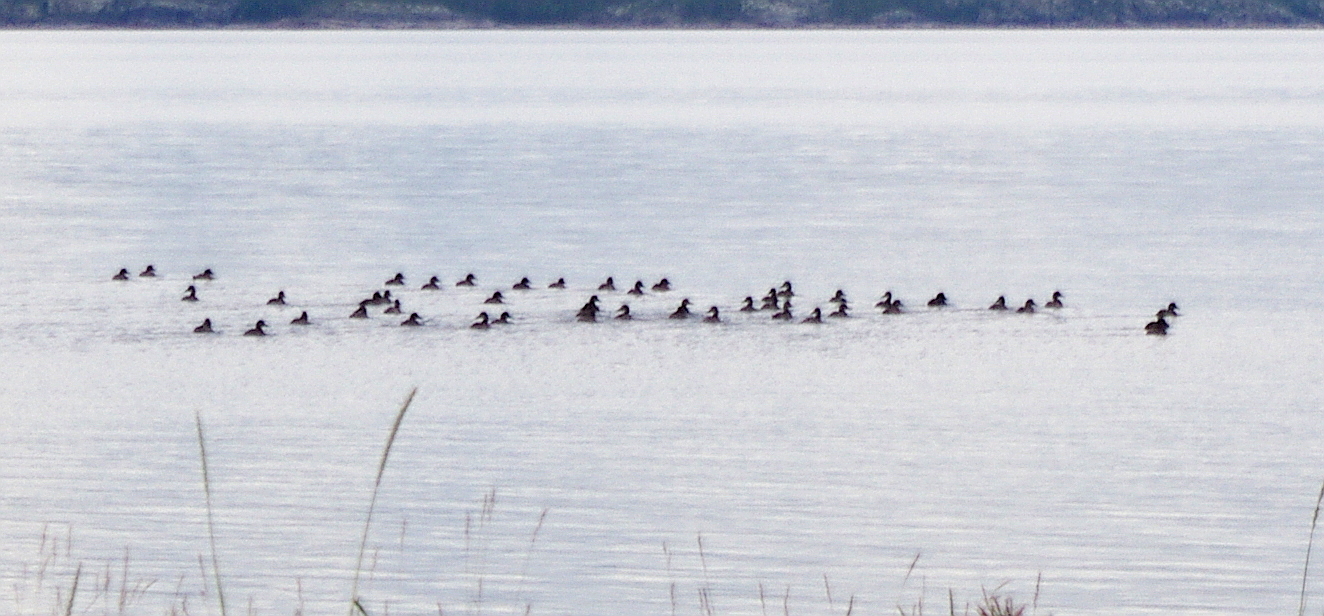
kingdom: Animalia
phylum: Chordata
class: Aves
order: Anseriformes
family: Anatidae
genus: Somateria
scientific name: Somateria mollissima
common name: Common eider
